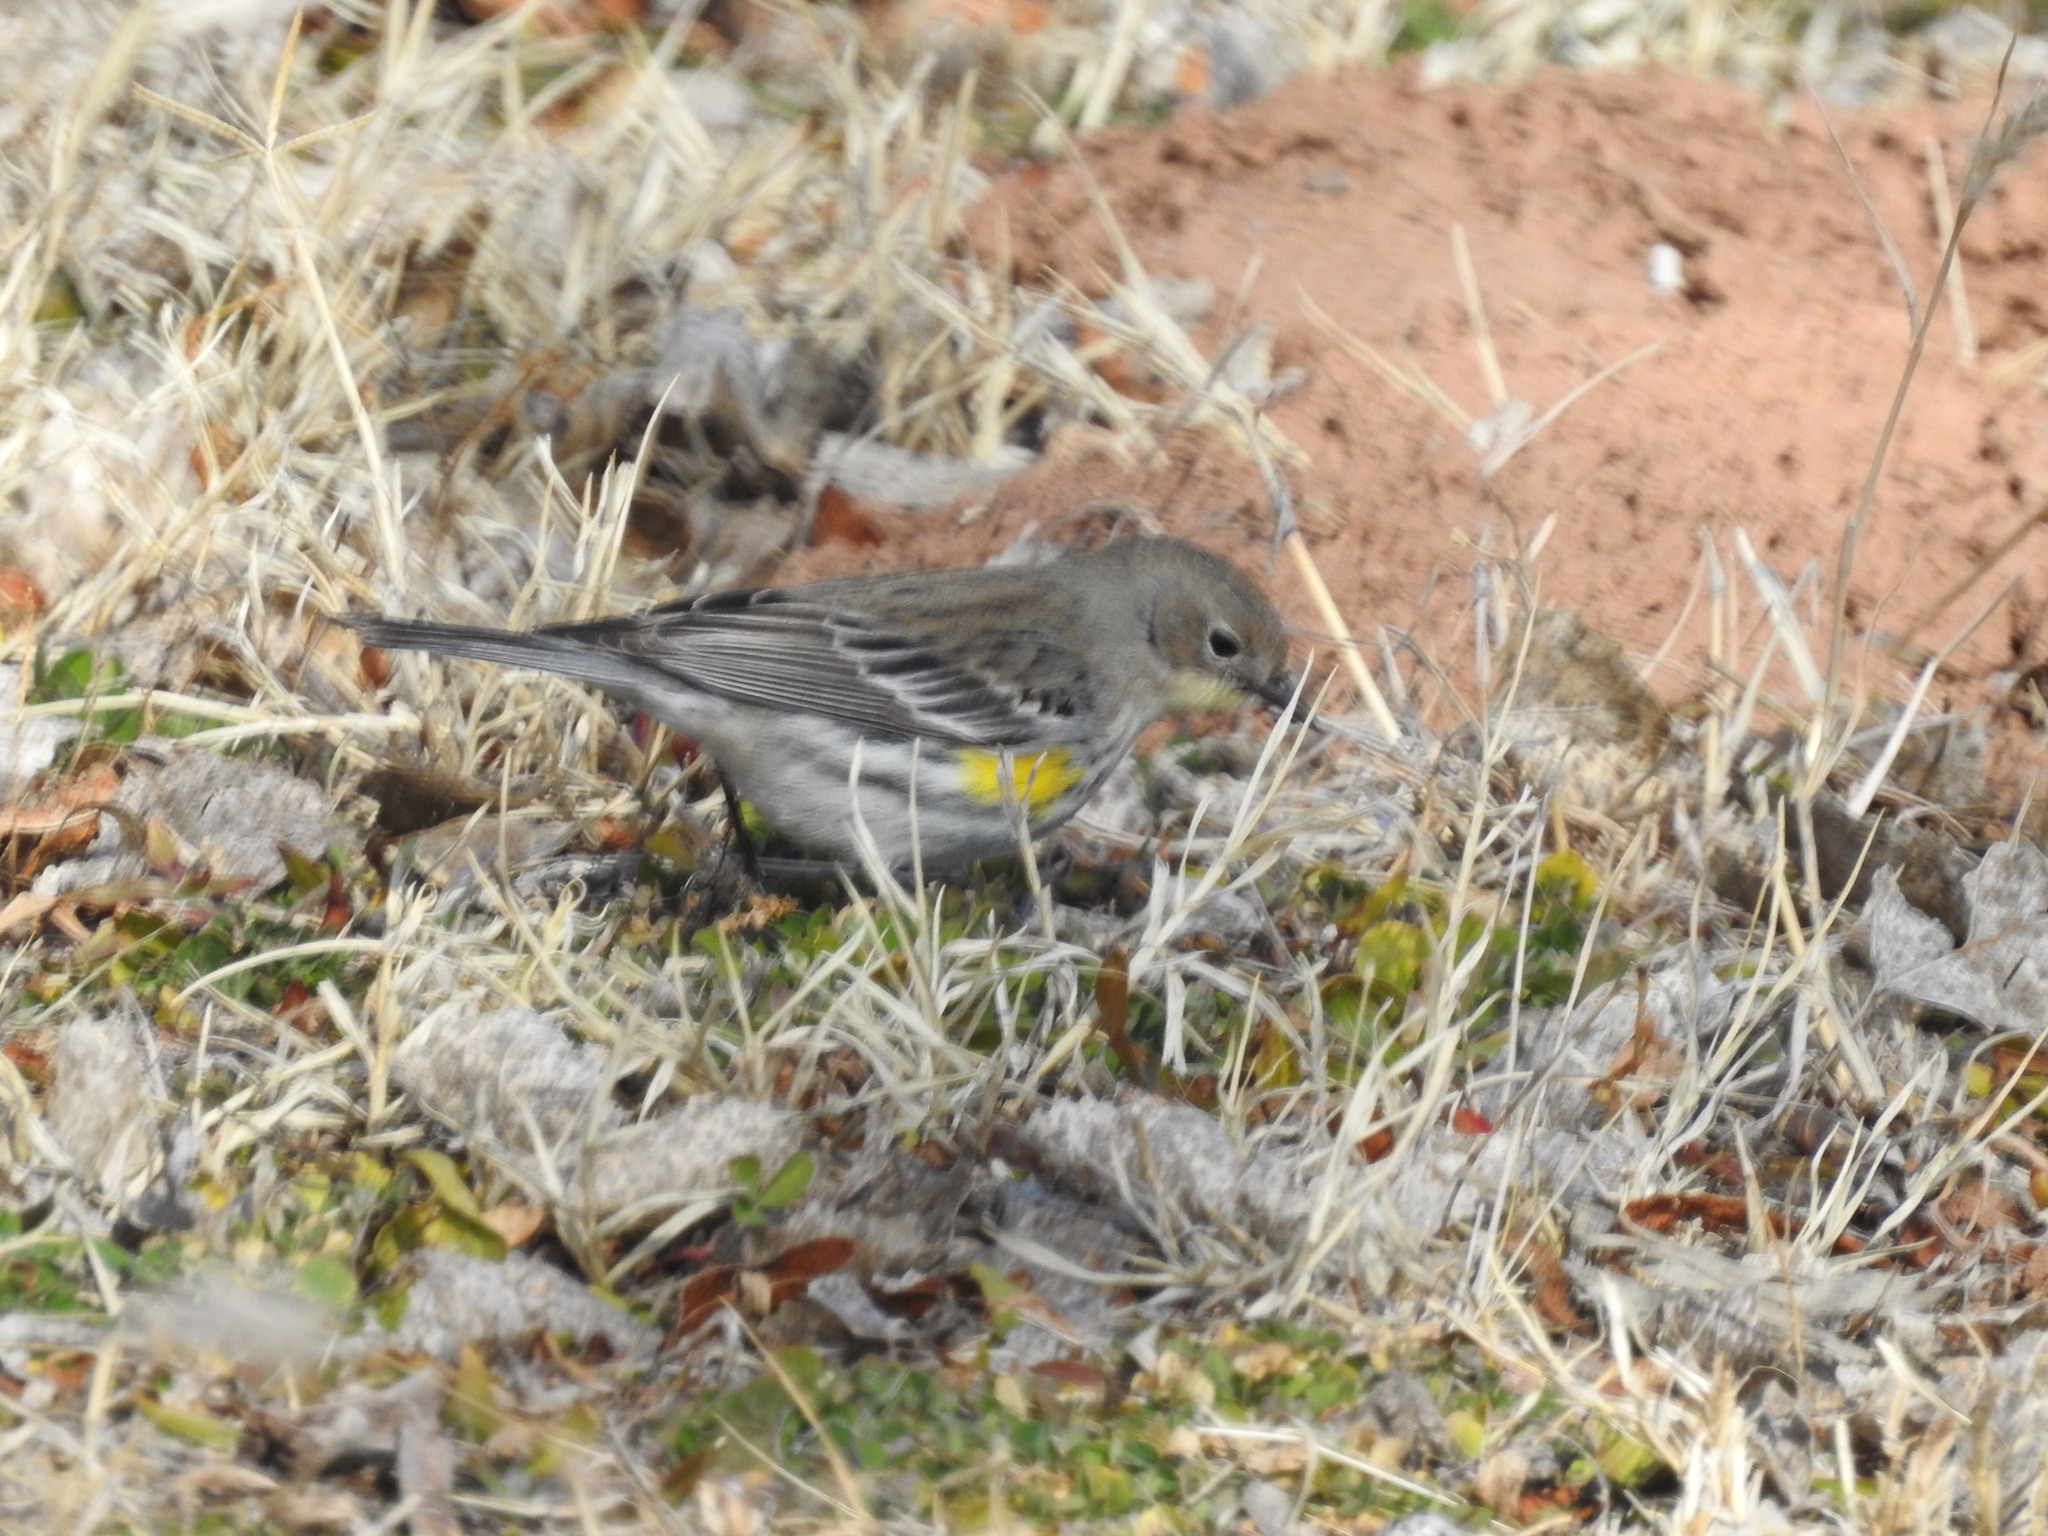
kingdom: Animalia
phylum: Chordata
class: Aves
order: Passeriformes
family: Parulidae
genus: Setophaga
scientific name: Setophaga coronata
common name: Myrtle warbler
